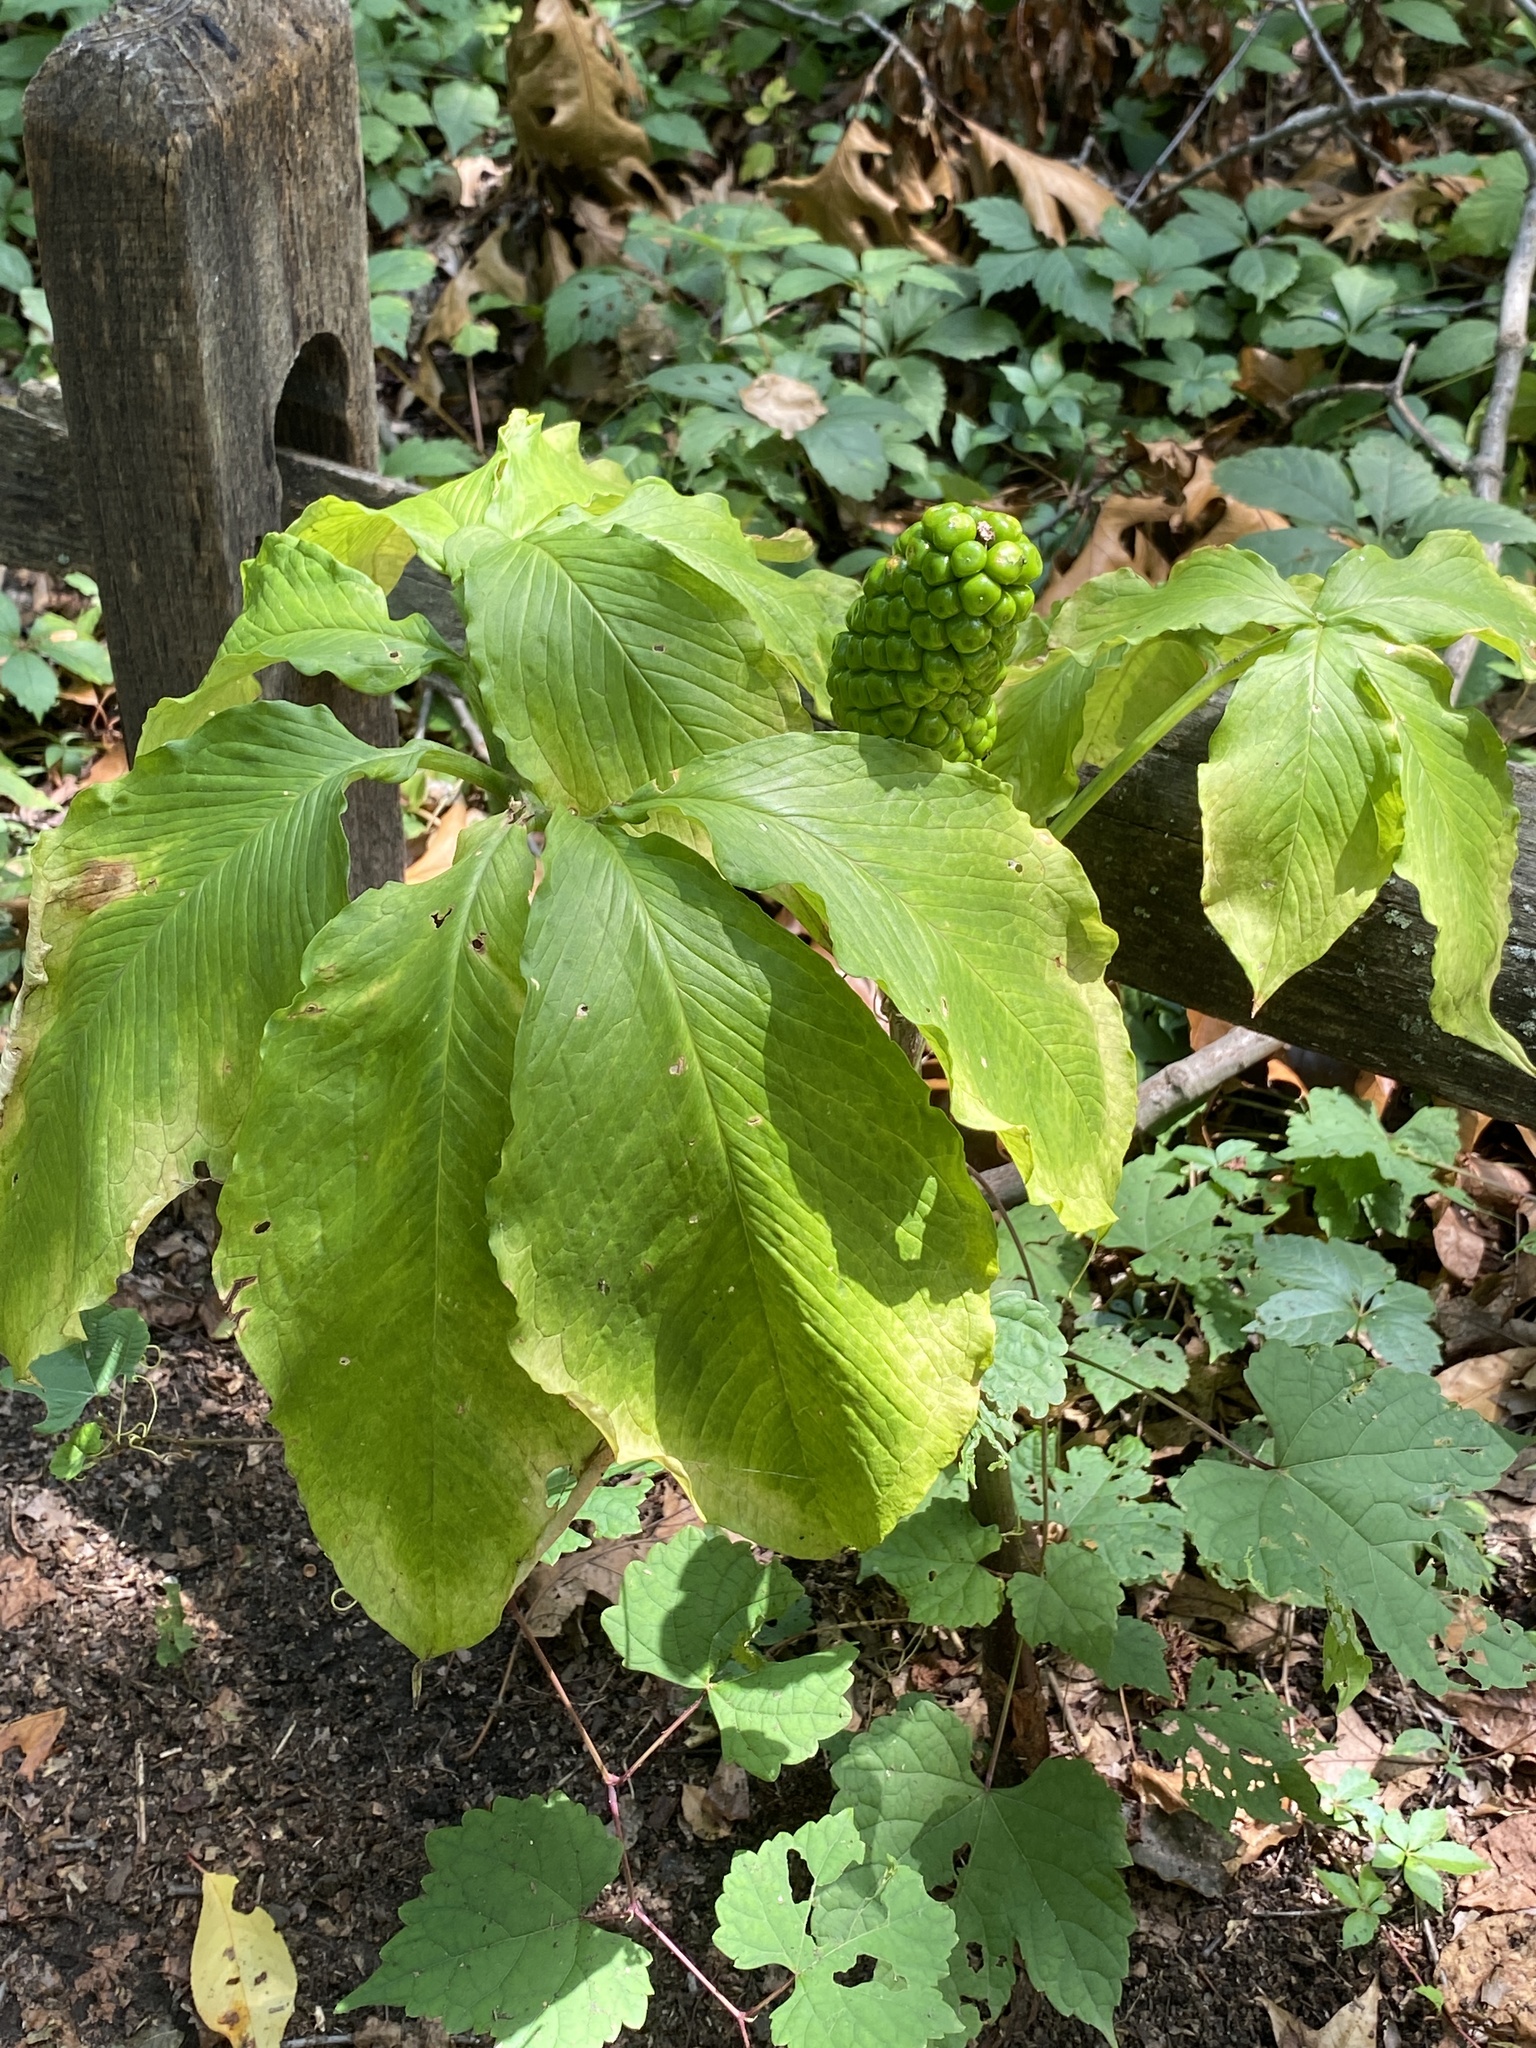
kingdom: Plantae
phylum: Tracheophyta
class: Liliopsida
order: Alismatales
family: Araceae
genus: Arisaema
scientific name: Arisaema dracontium
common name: Dragon-arum
